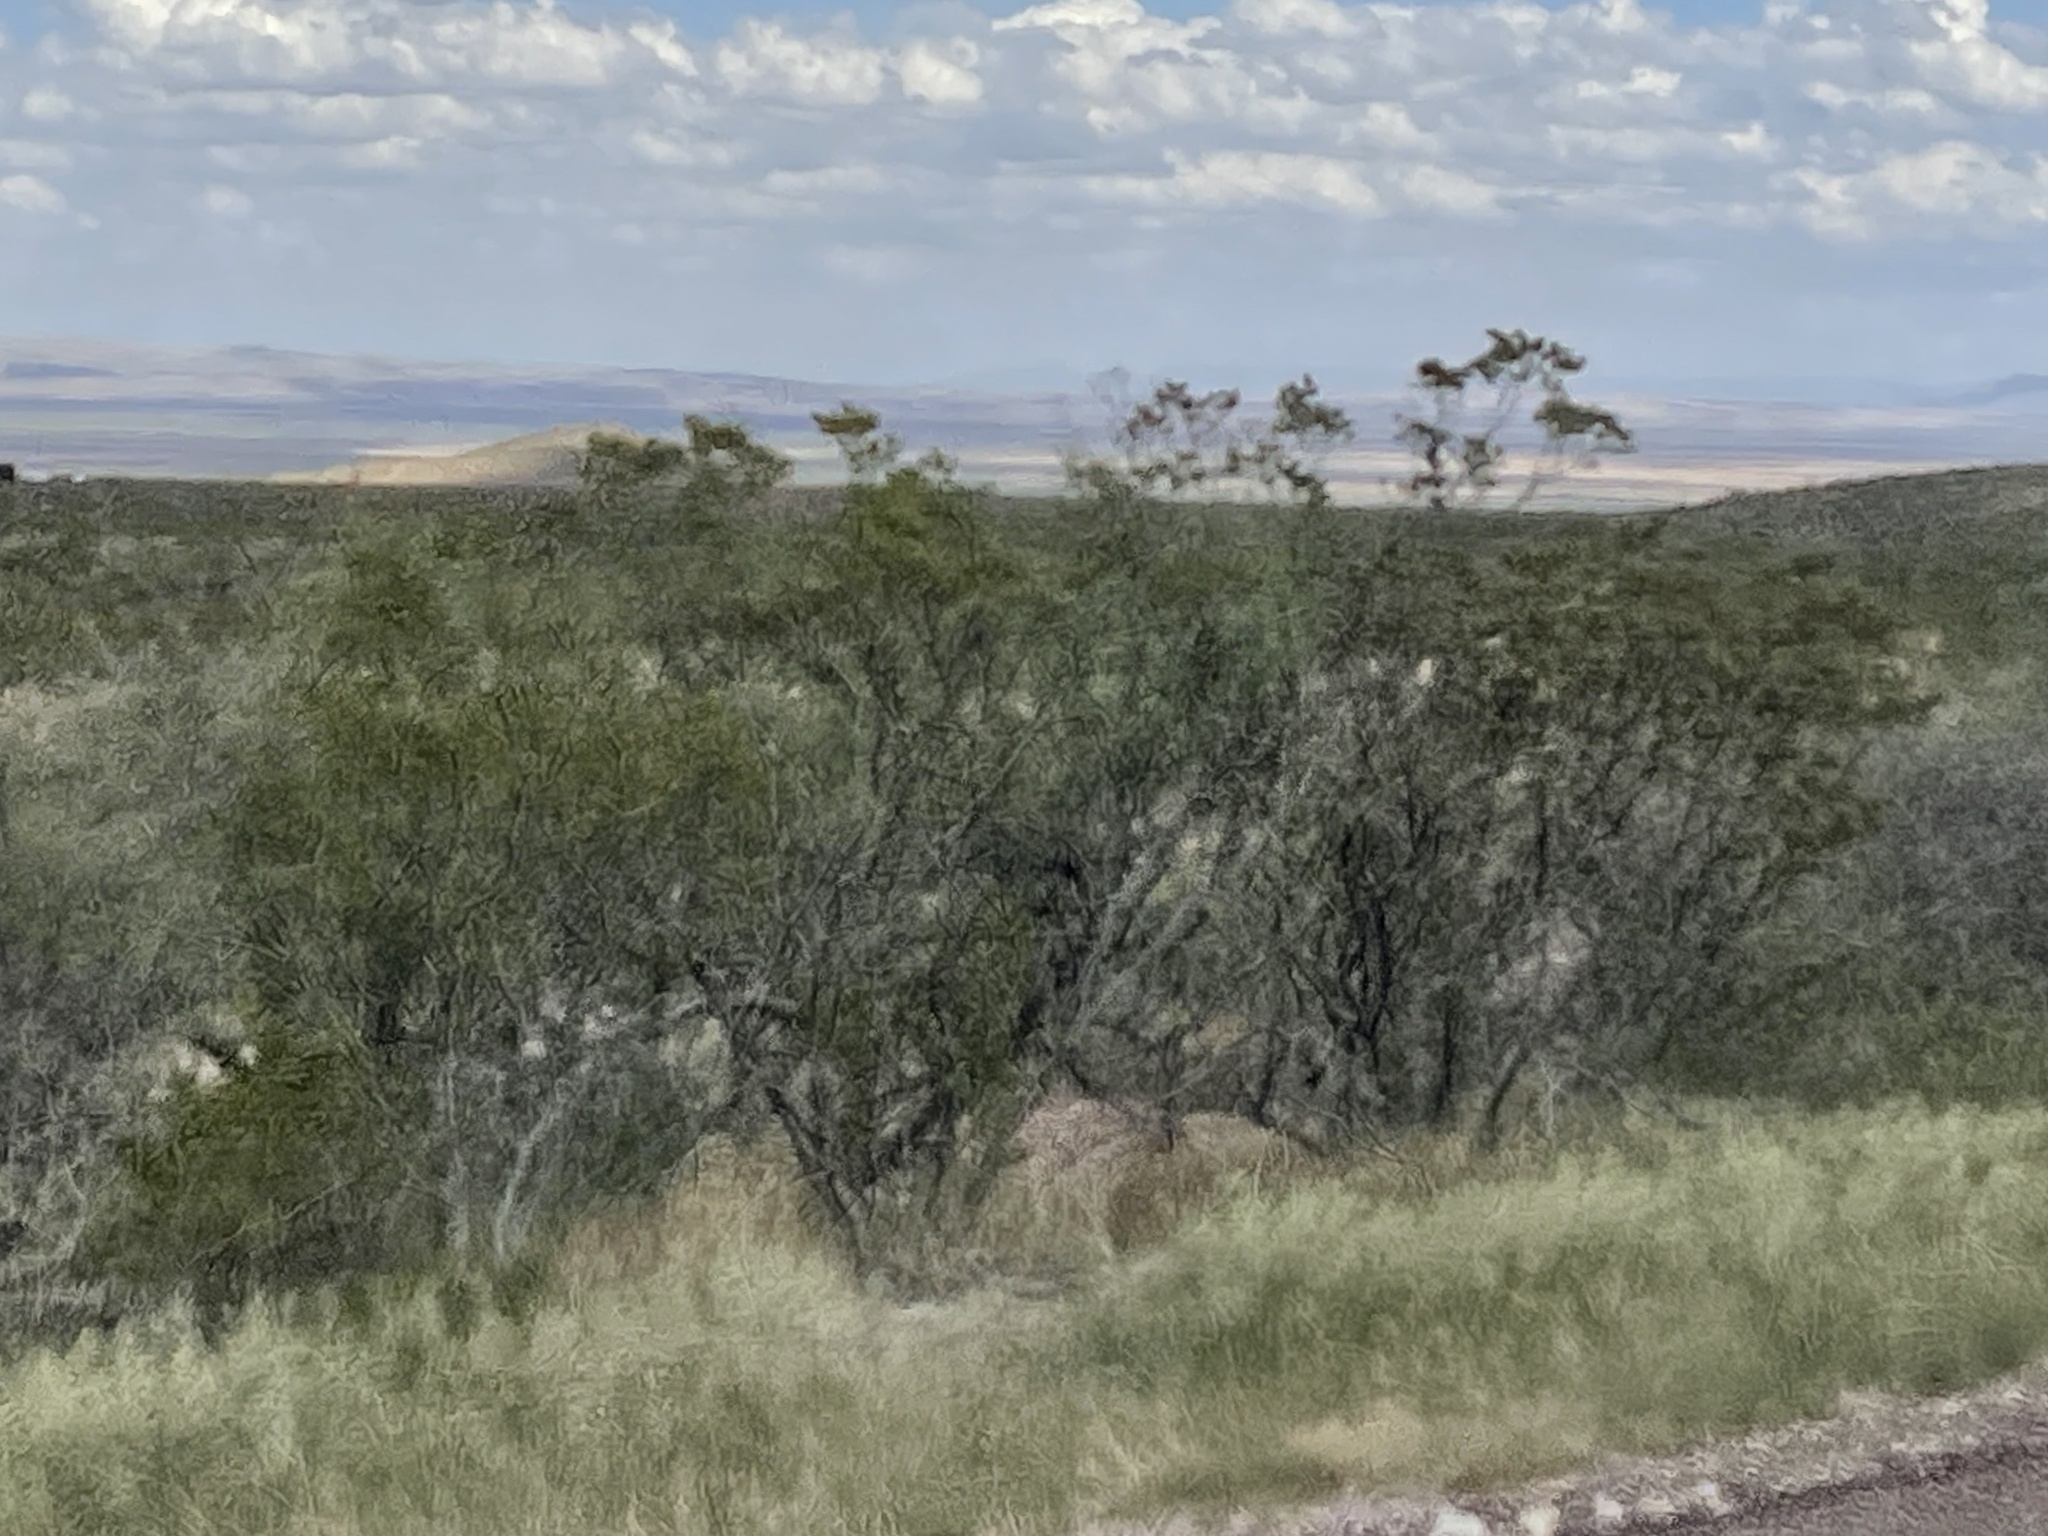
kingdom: Plantae
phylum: Tracheophyta
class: Magnoliopsida
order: Zygophyllales
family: Zygophyllaceae
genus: Larrea
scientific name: Larrea tridentata
